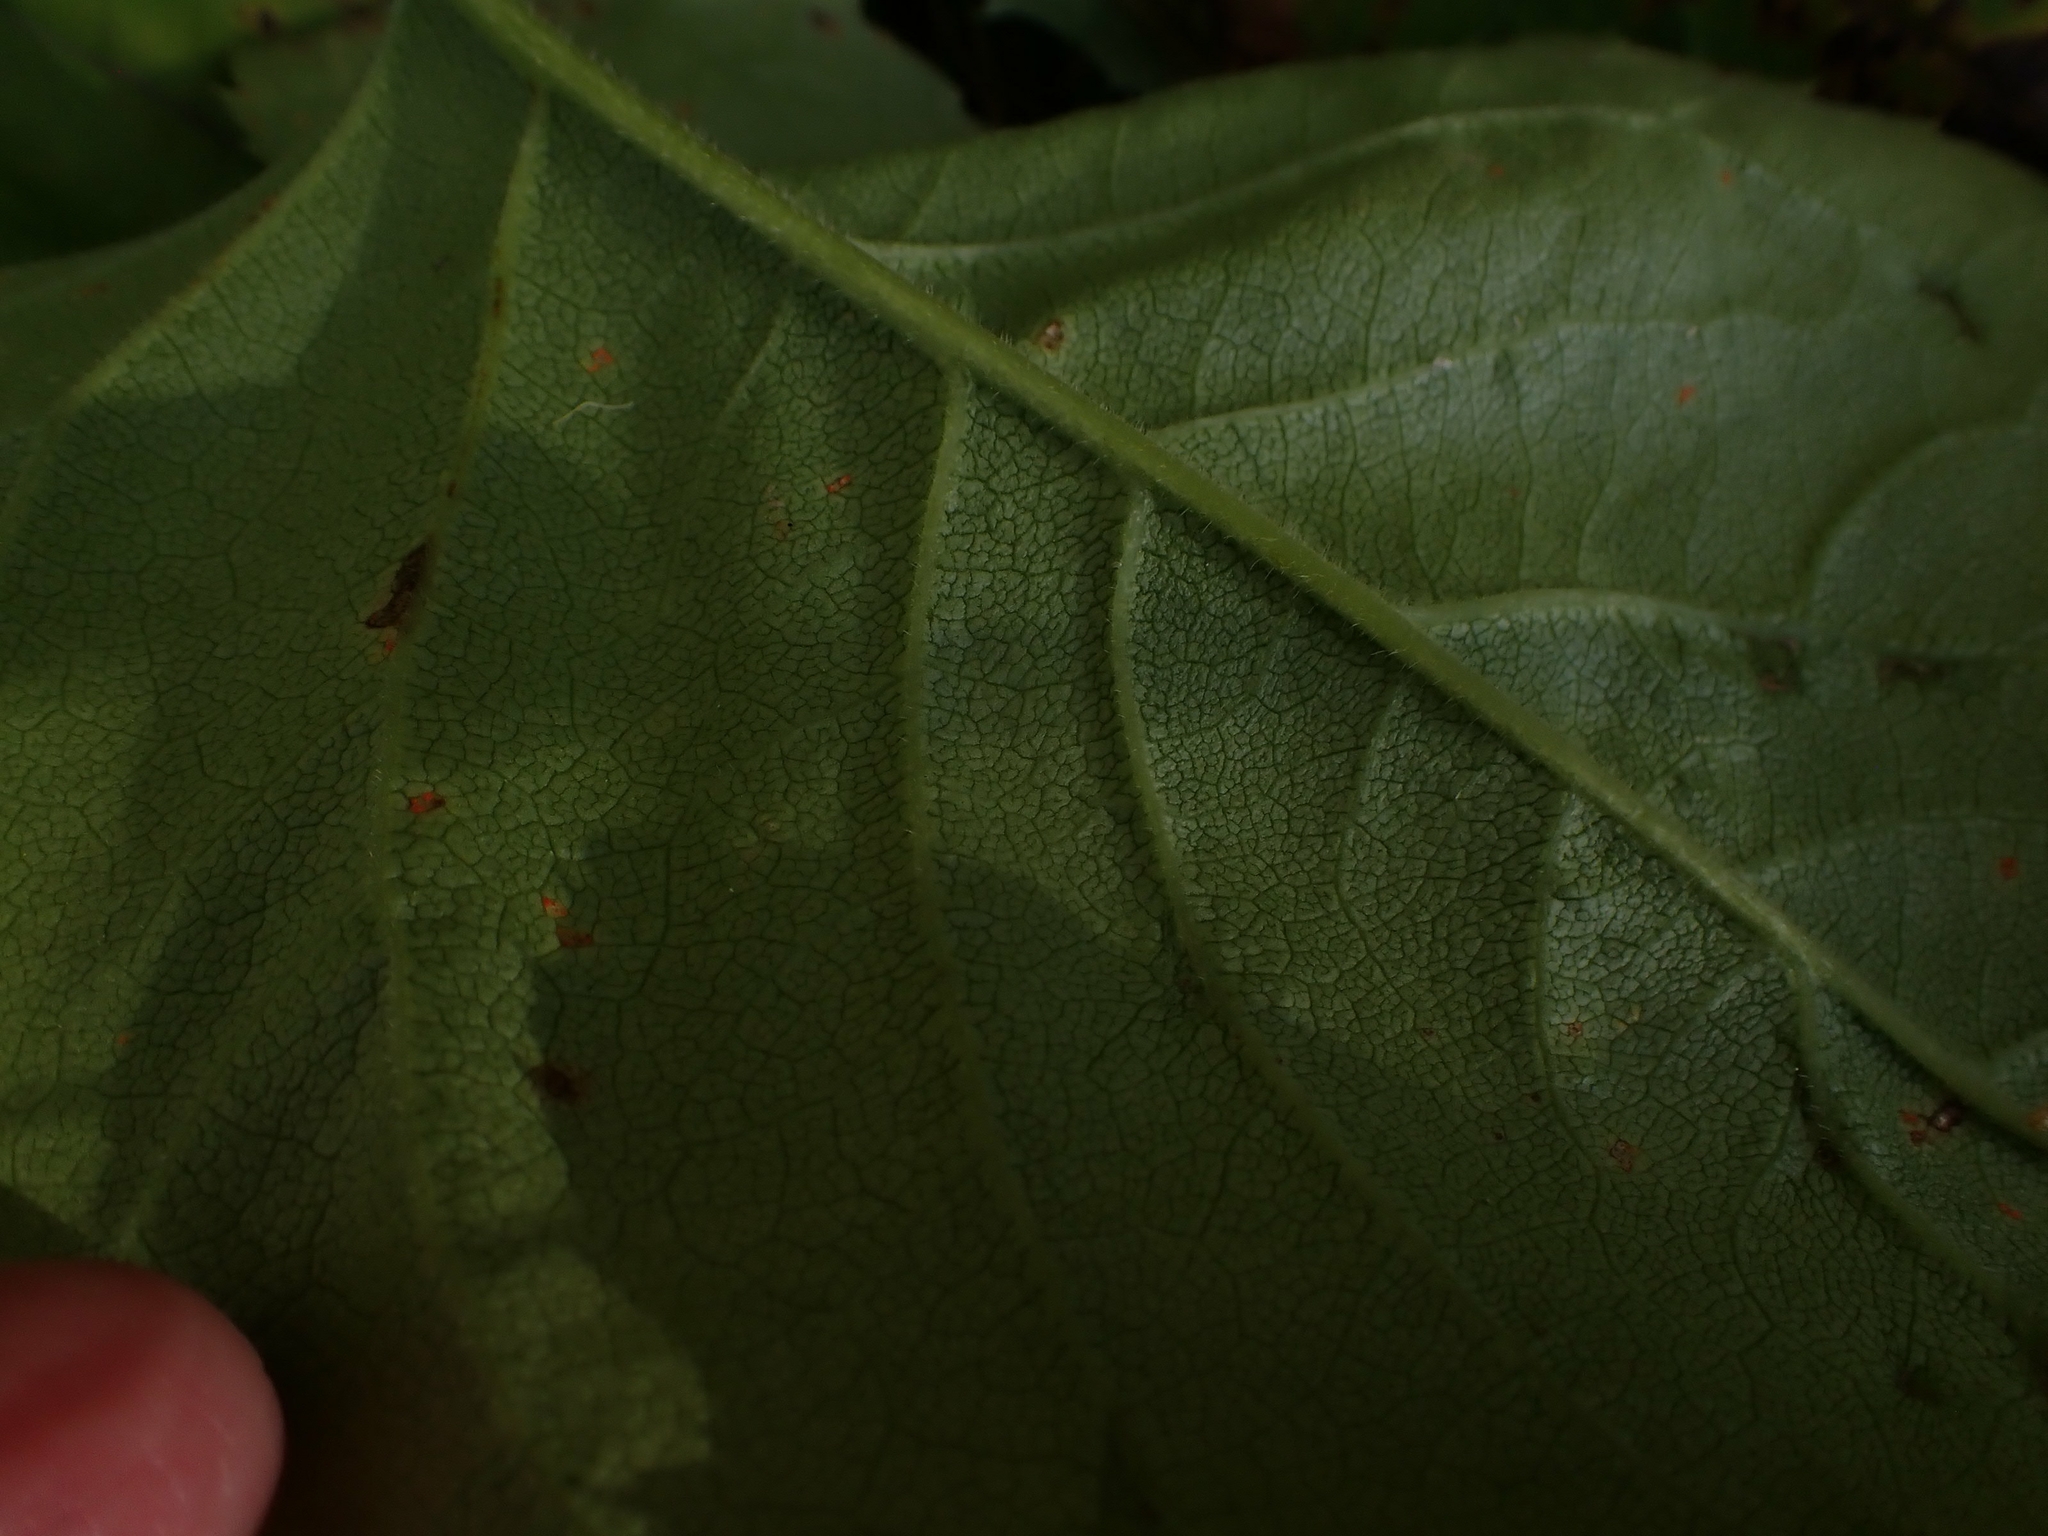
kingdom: Plantae
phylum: Tracheophyta
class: Magnoliopsida
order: Asterales
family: Asteraceae
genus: Eurybia
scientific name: Eurybia macrophylla
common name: Big-leaved aster
